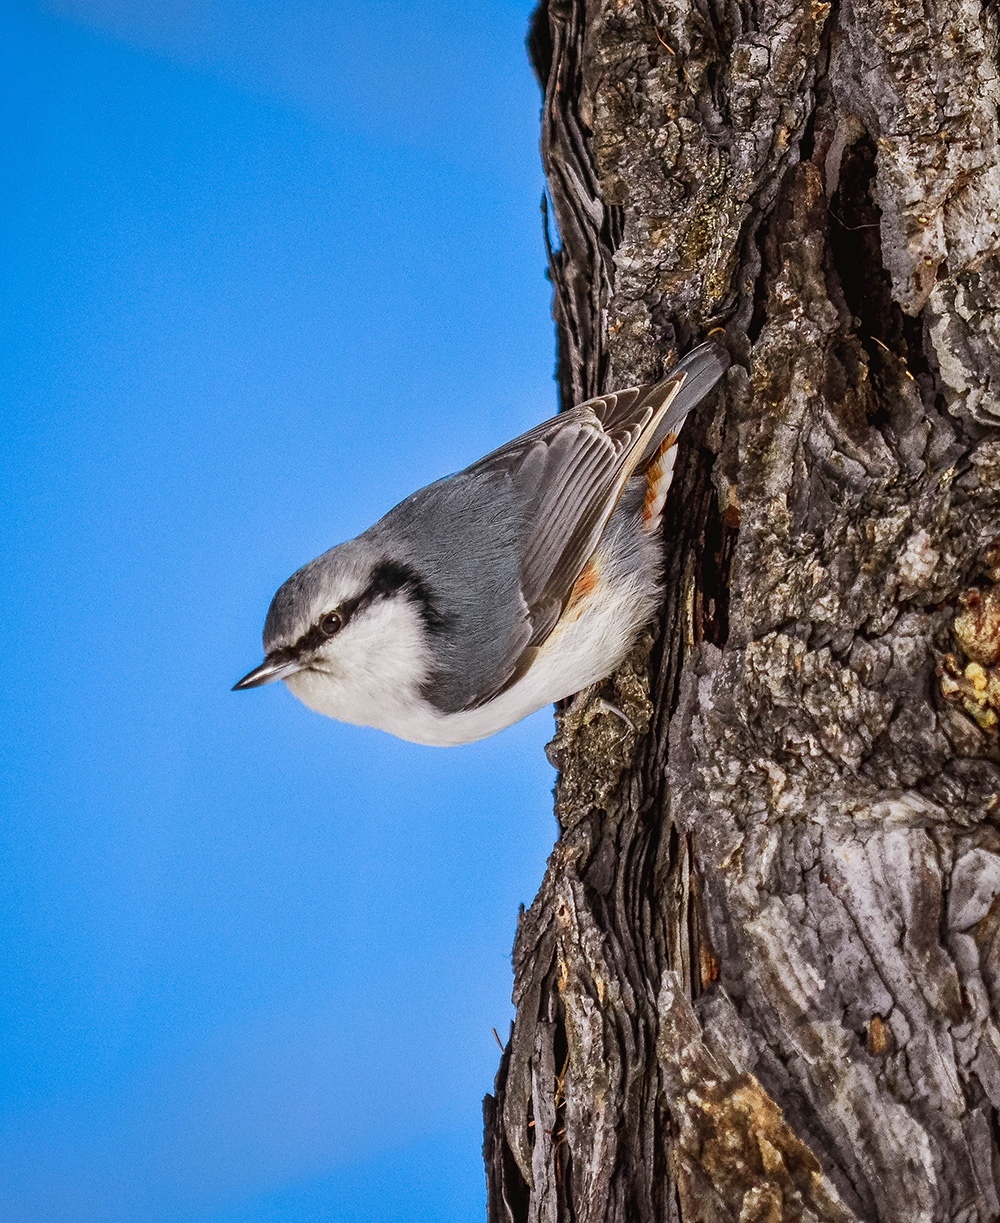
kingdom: Animalia
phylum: Chordata
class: Aves
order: Passeriformes
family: Sittidae
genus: Sitta
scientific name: Sitta europaea
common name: Eurasian nuthatch
